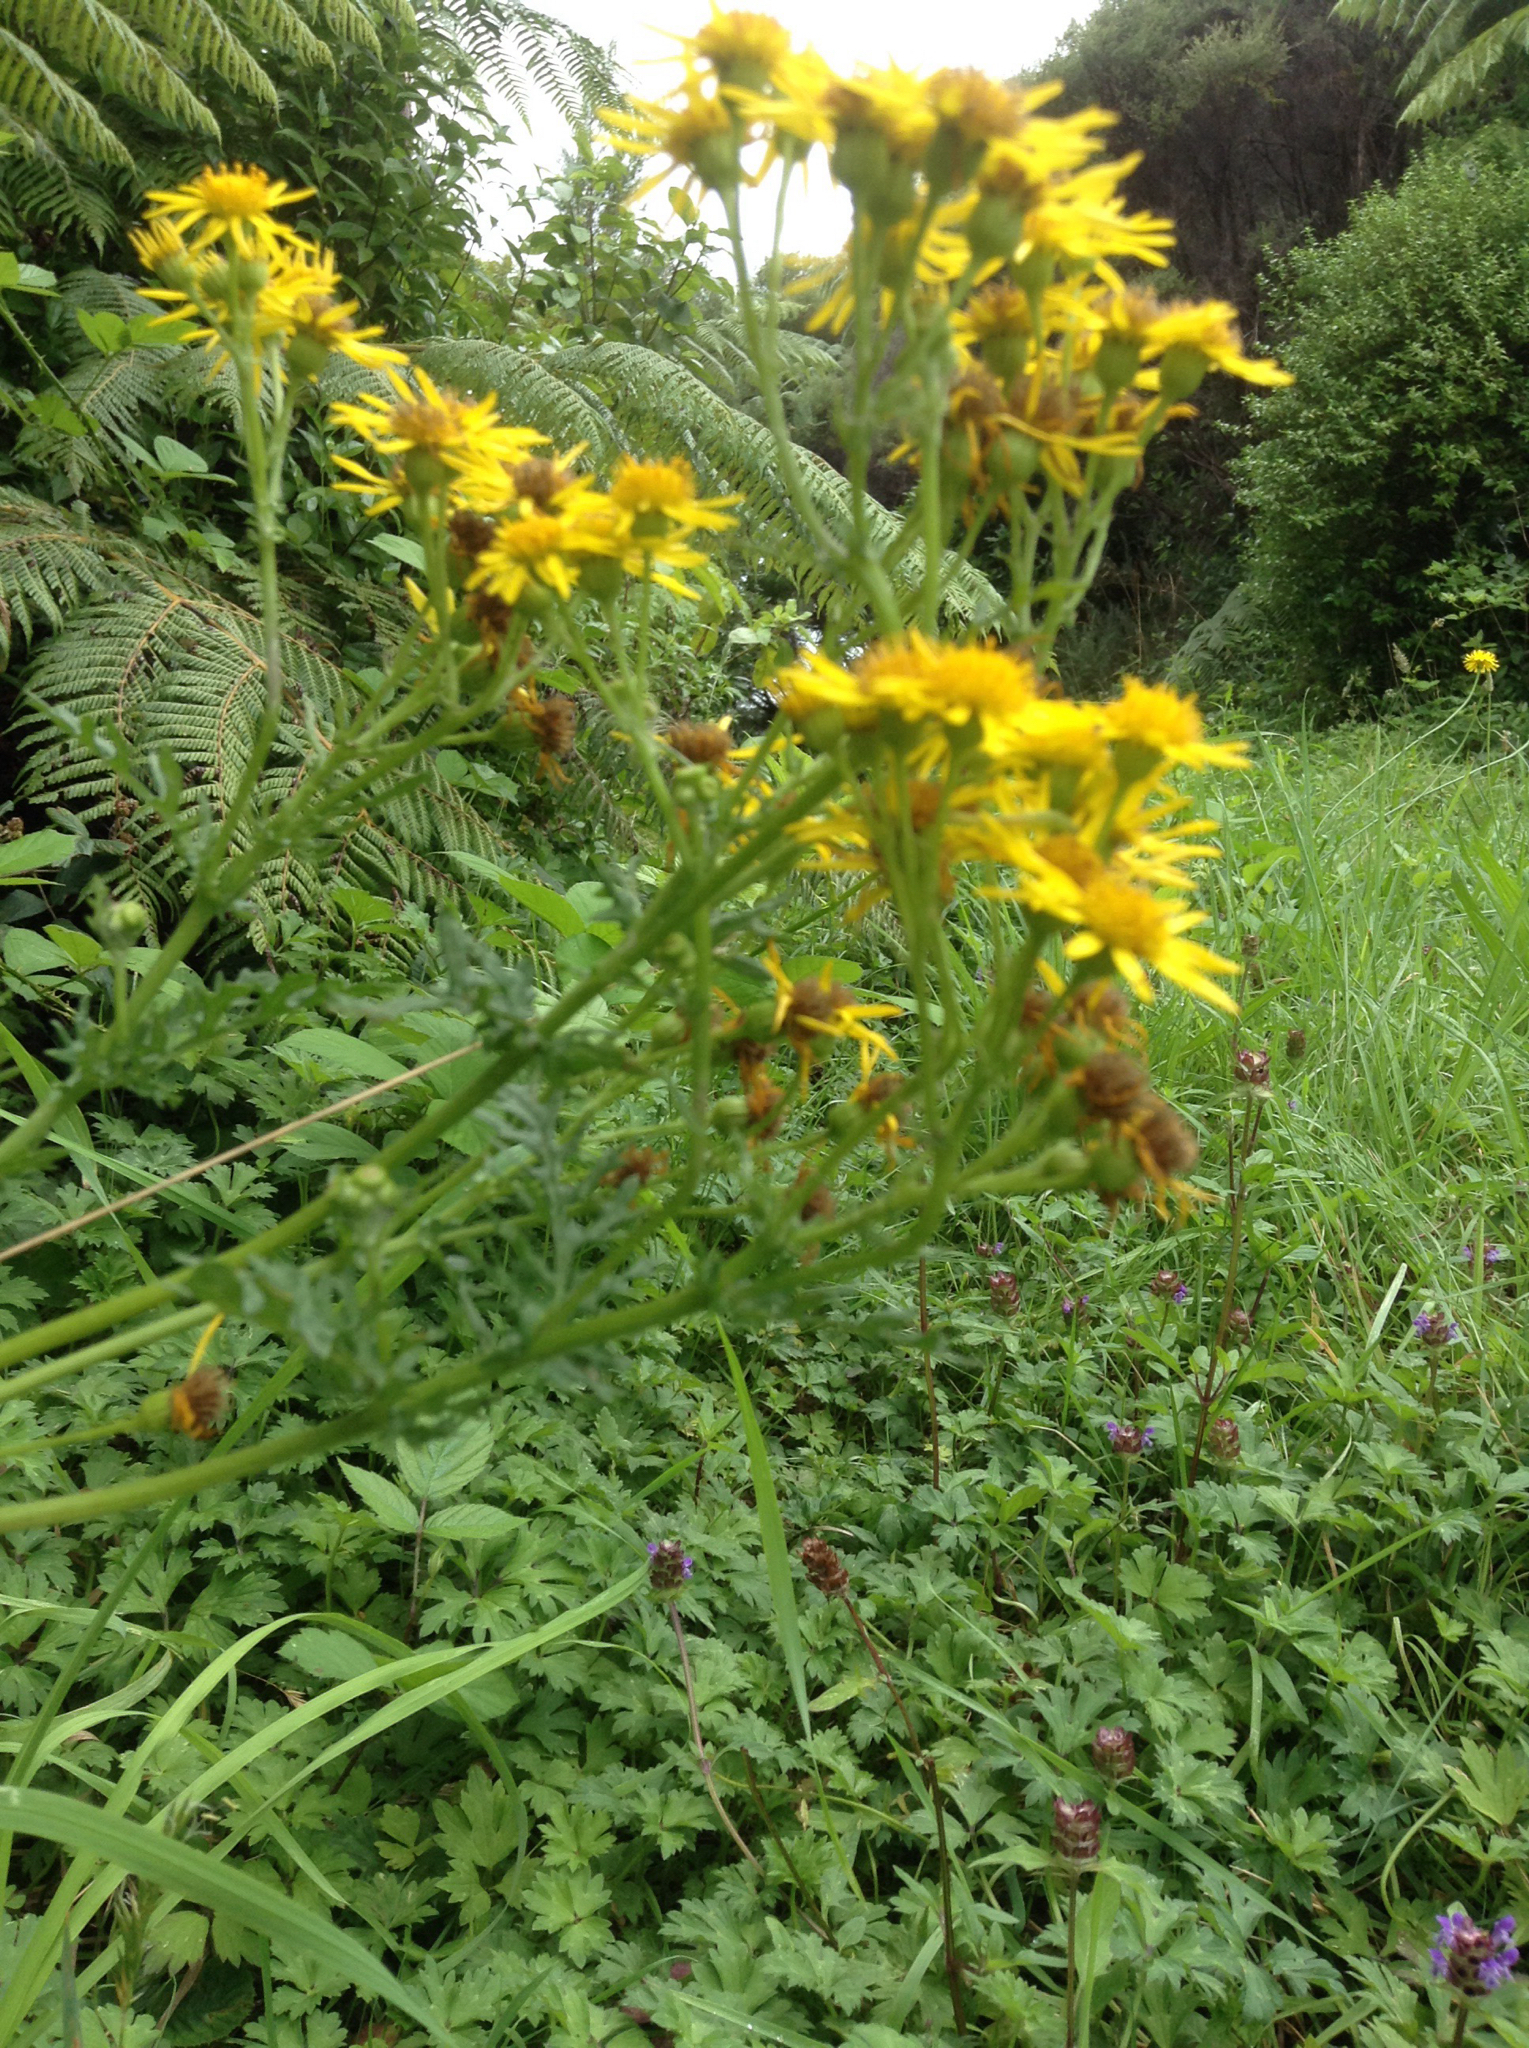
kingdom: Plantae
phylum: Tracheophyta
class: Magnoliopsida
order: Asterales
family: Asteraceae
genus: Jacobaea
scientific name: Jacobaea vulgaris
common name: Stinking willie
